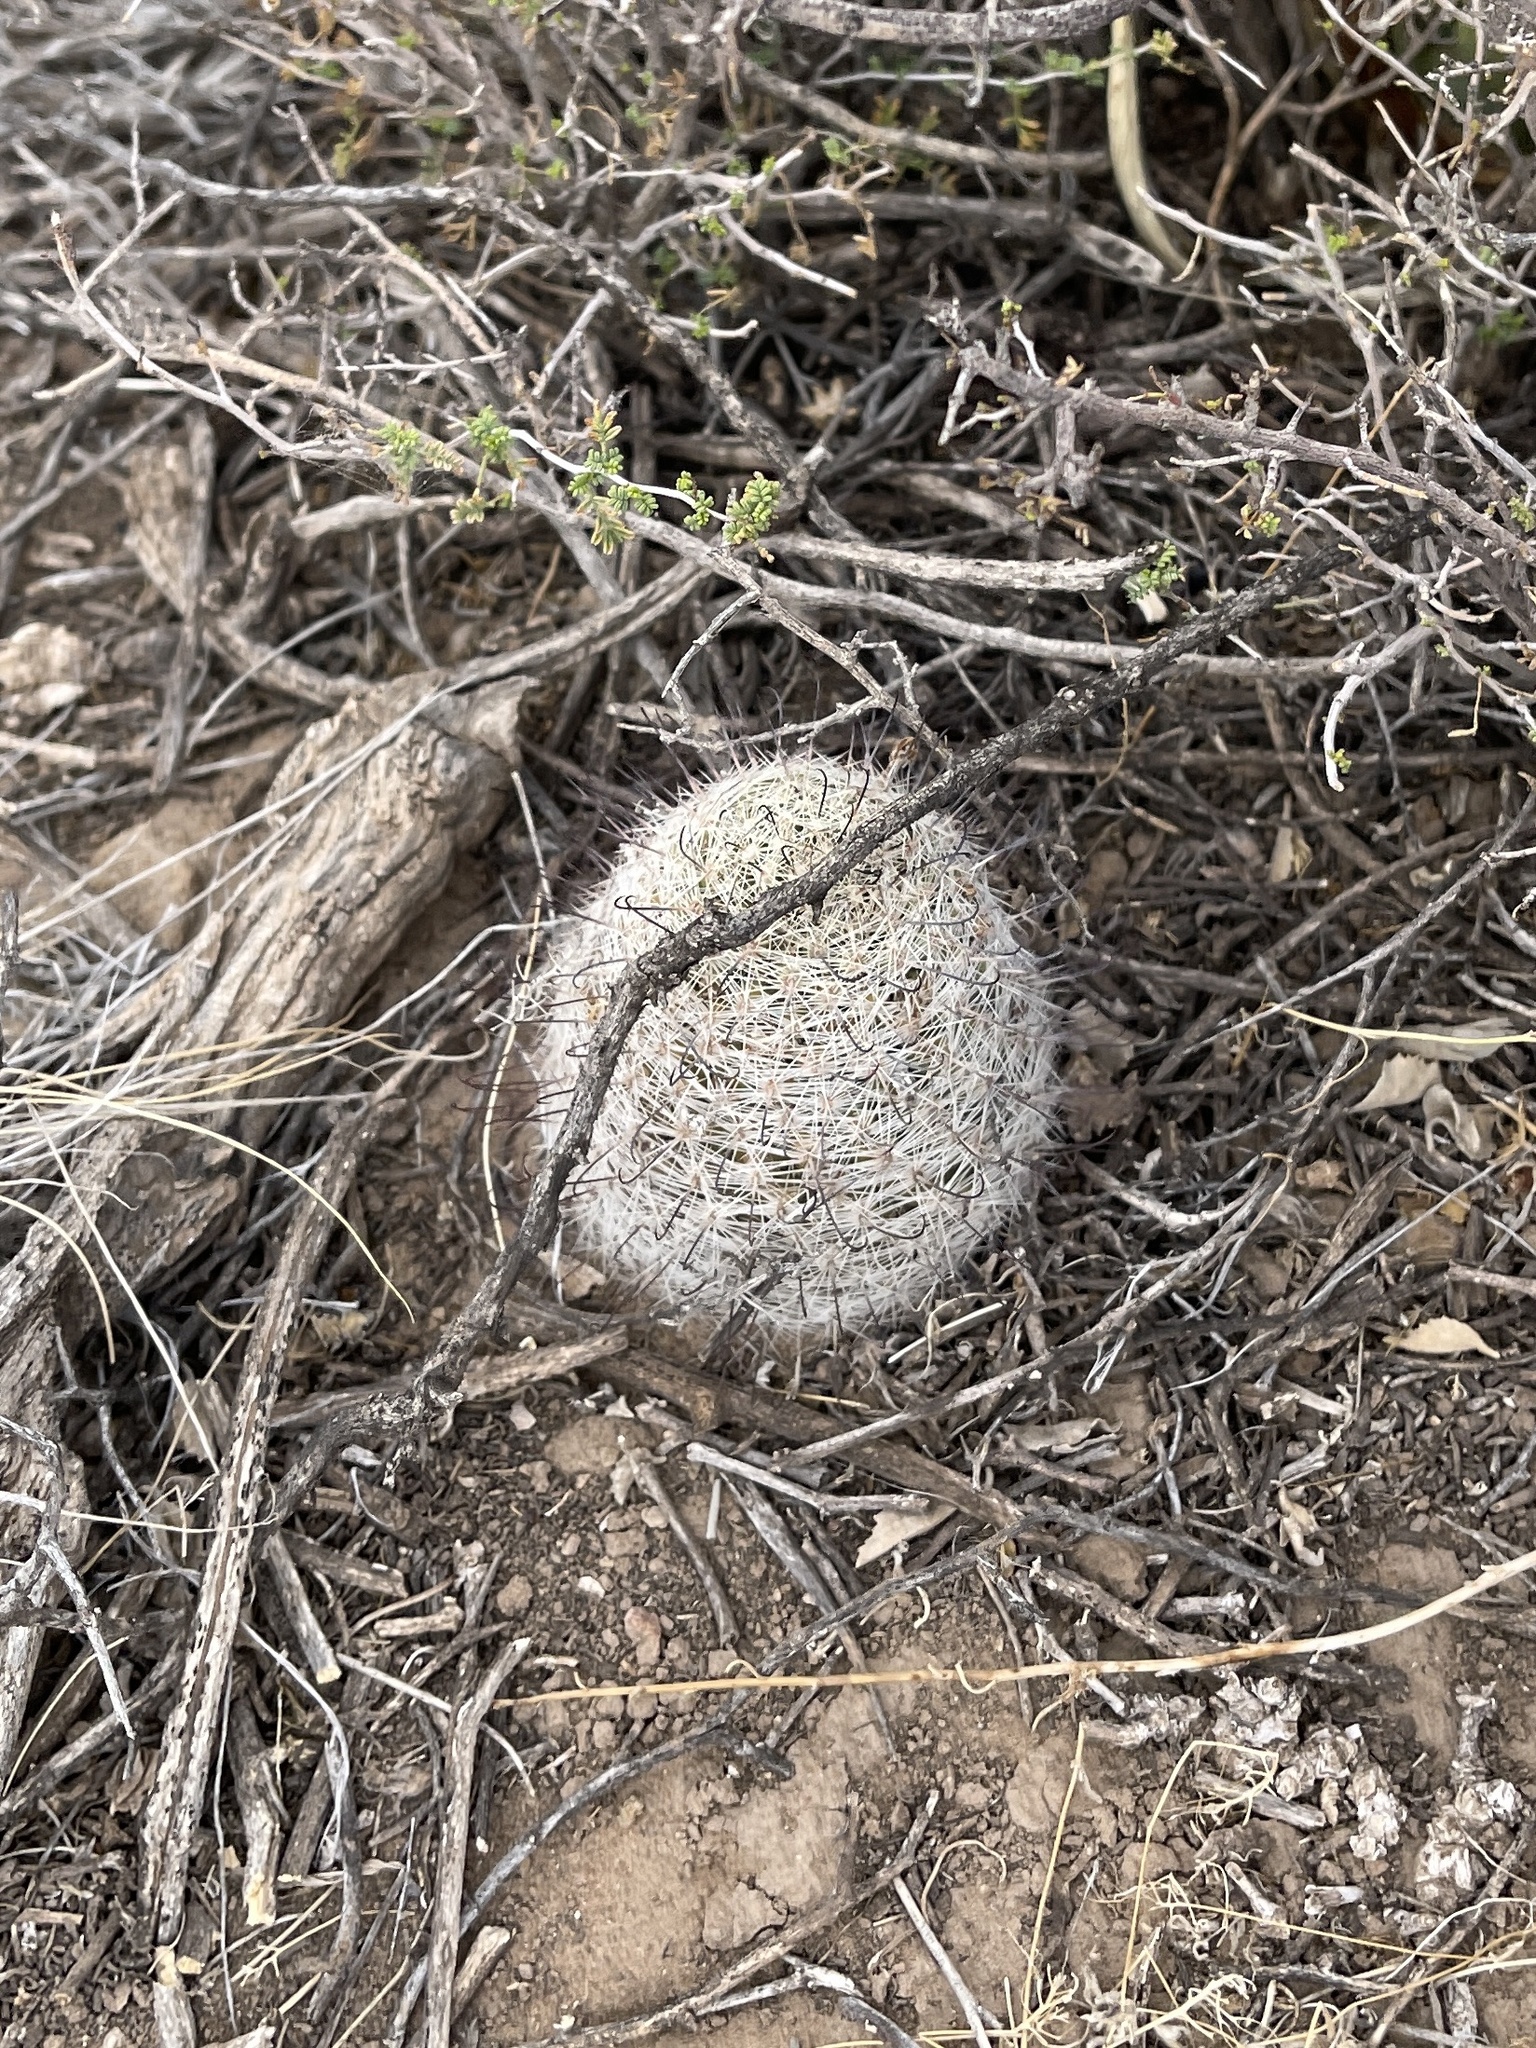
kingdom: Plantae
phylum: Tracheophyta
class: Magnoliopsida
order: Caryophyllales
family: Cactaceae
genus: Cochemiea
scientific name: Cochemiea grahamii
